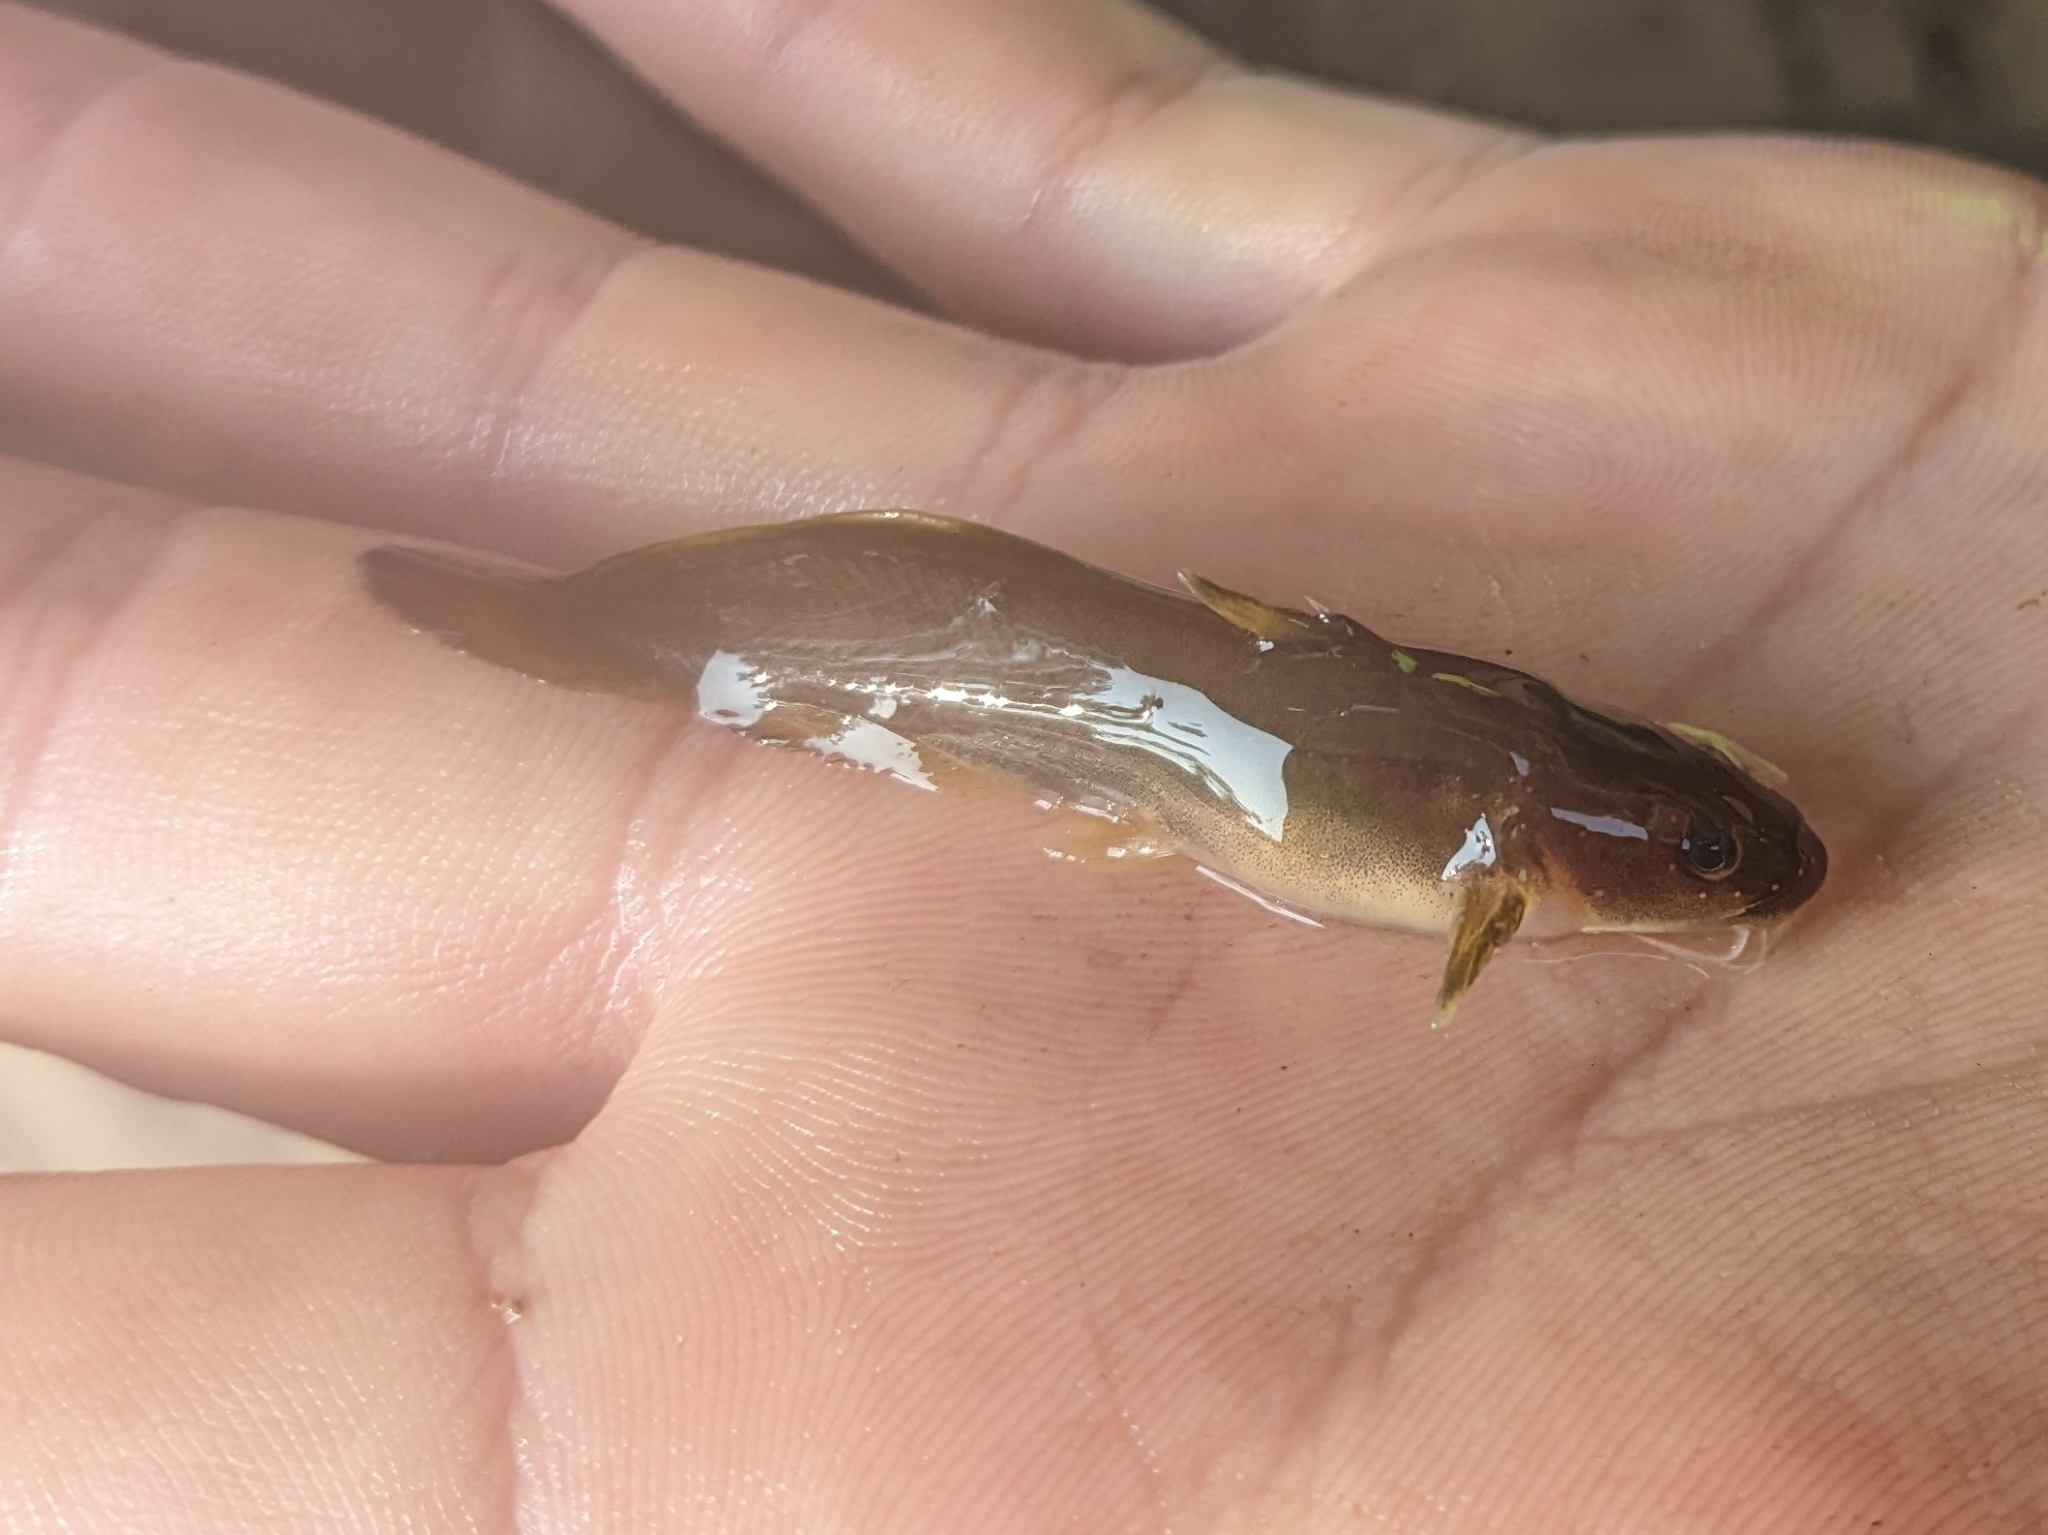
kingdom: Animalia
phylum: Chordata
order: Siluriformes
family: Ictaluridae
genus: Noturus
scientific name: Noturus insignis
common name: Margined madtom
